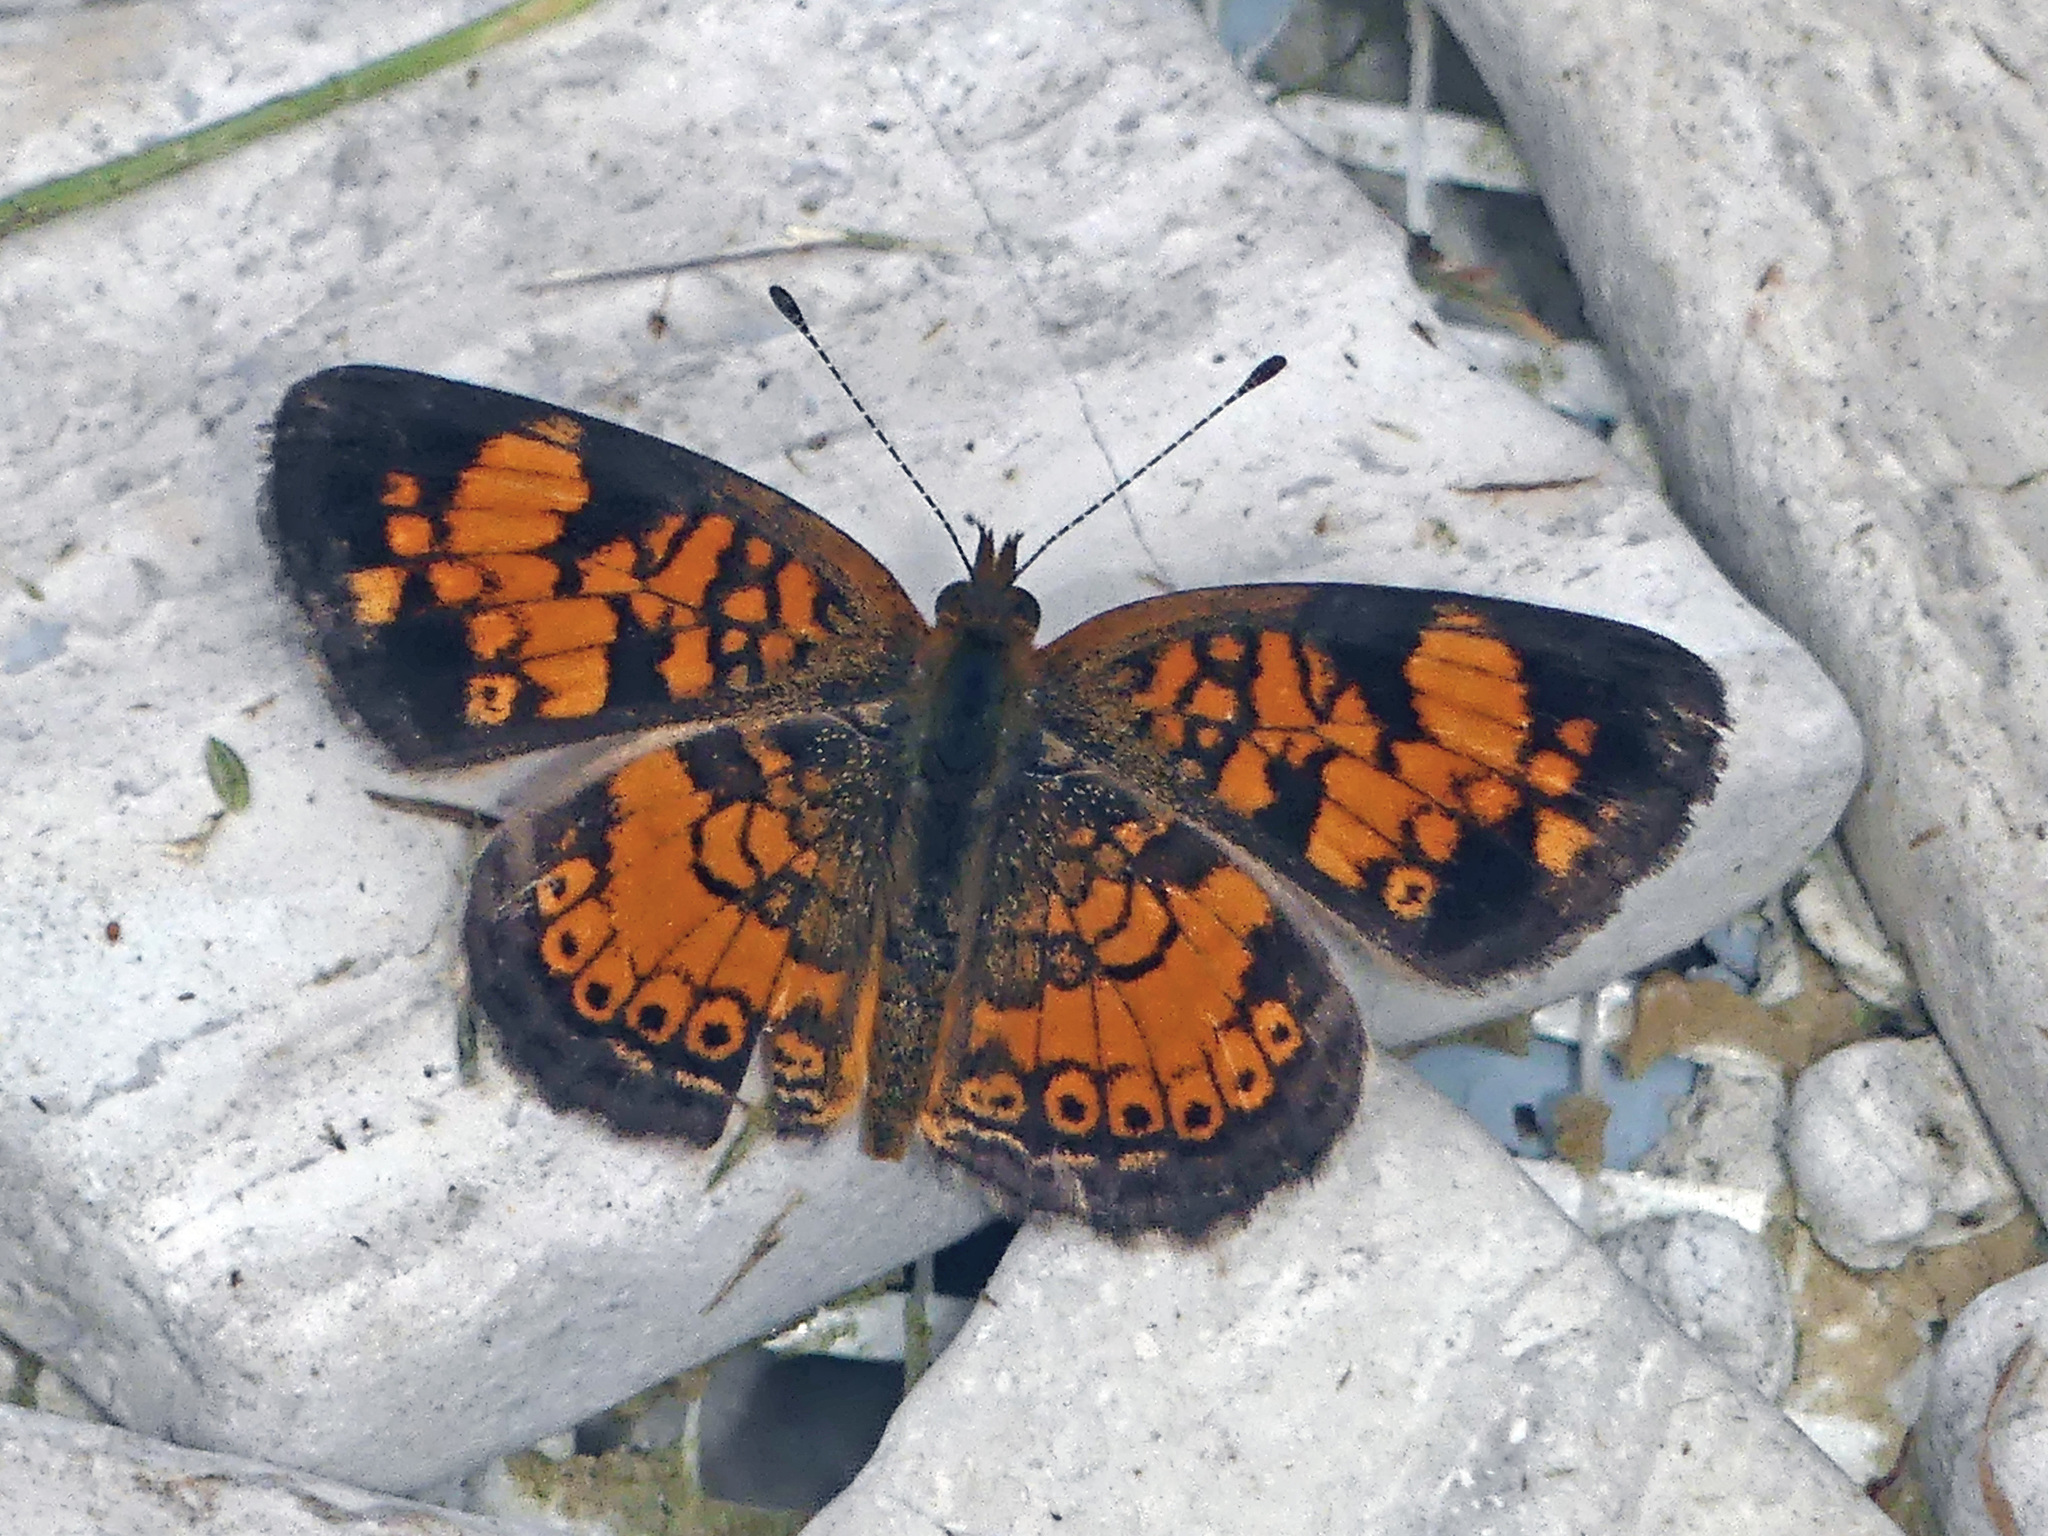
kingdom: Animalia
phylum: Arthropoda
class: Insecta
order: Lepidoptera
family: Nymphalidae
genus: Phyciodes
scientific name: Phyciodes tharos
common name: Pearl crescent
